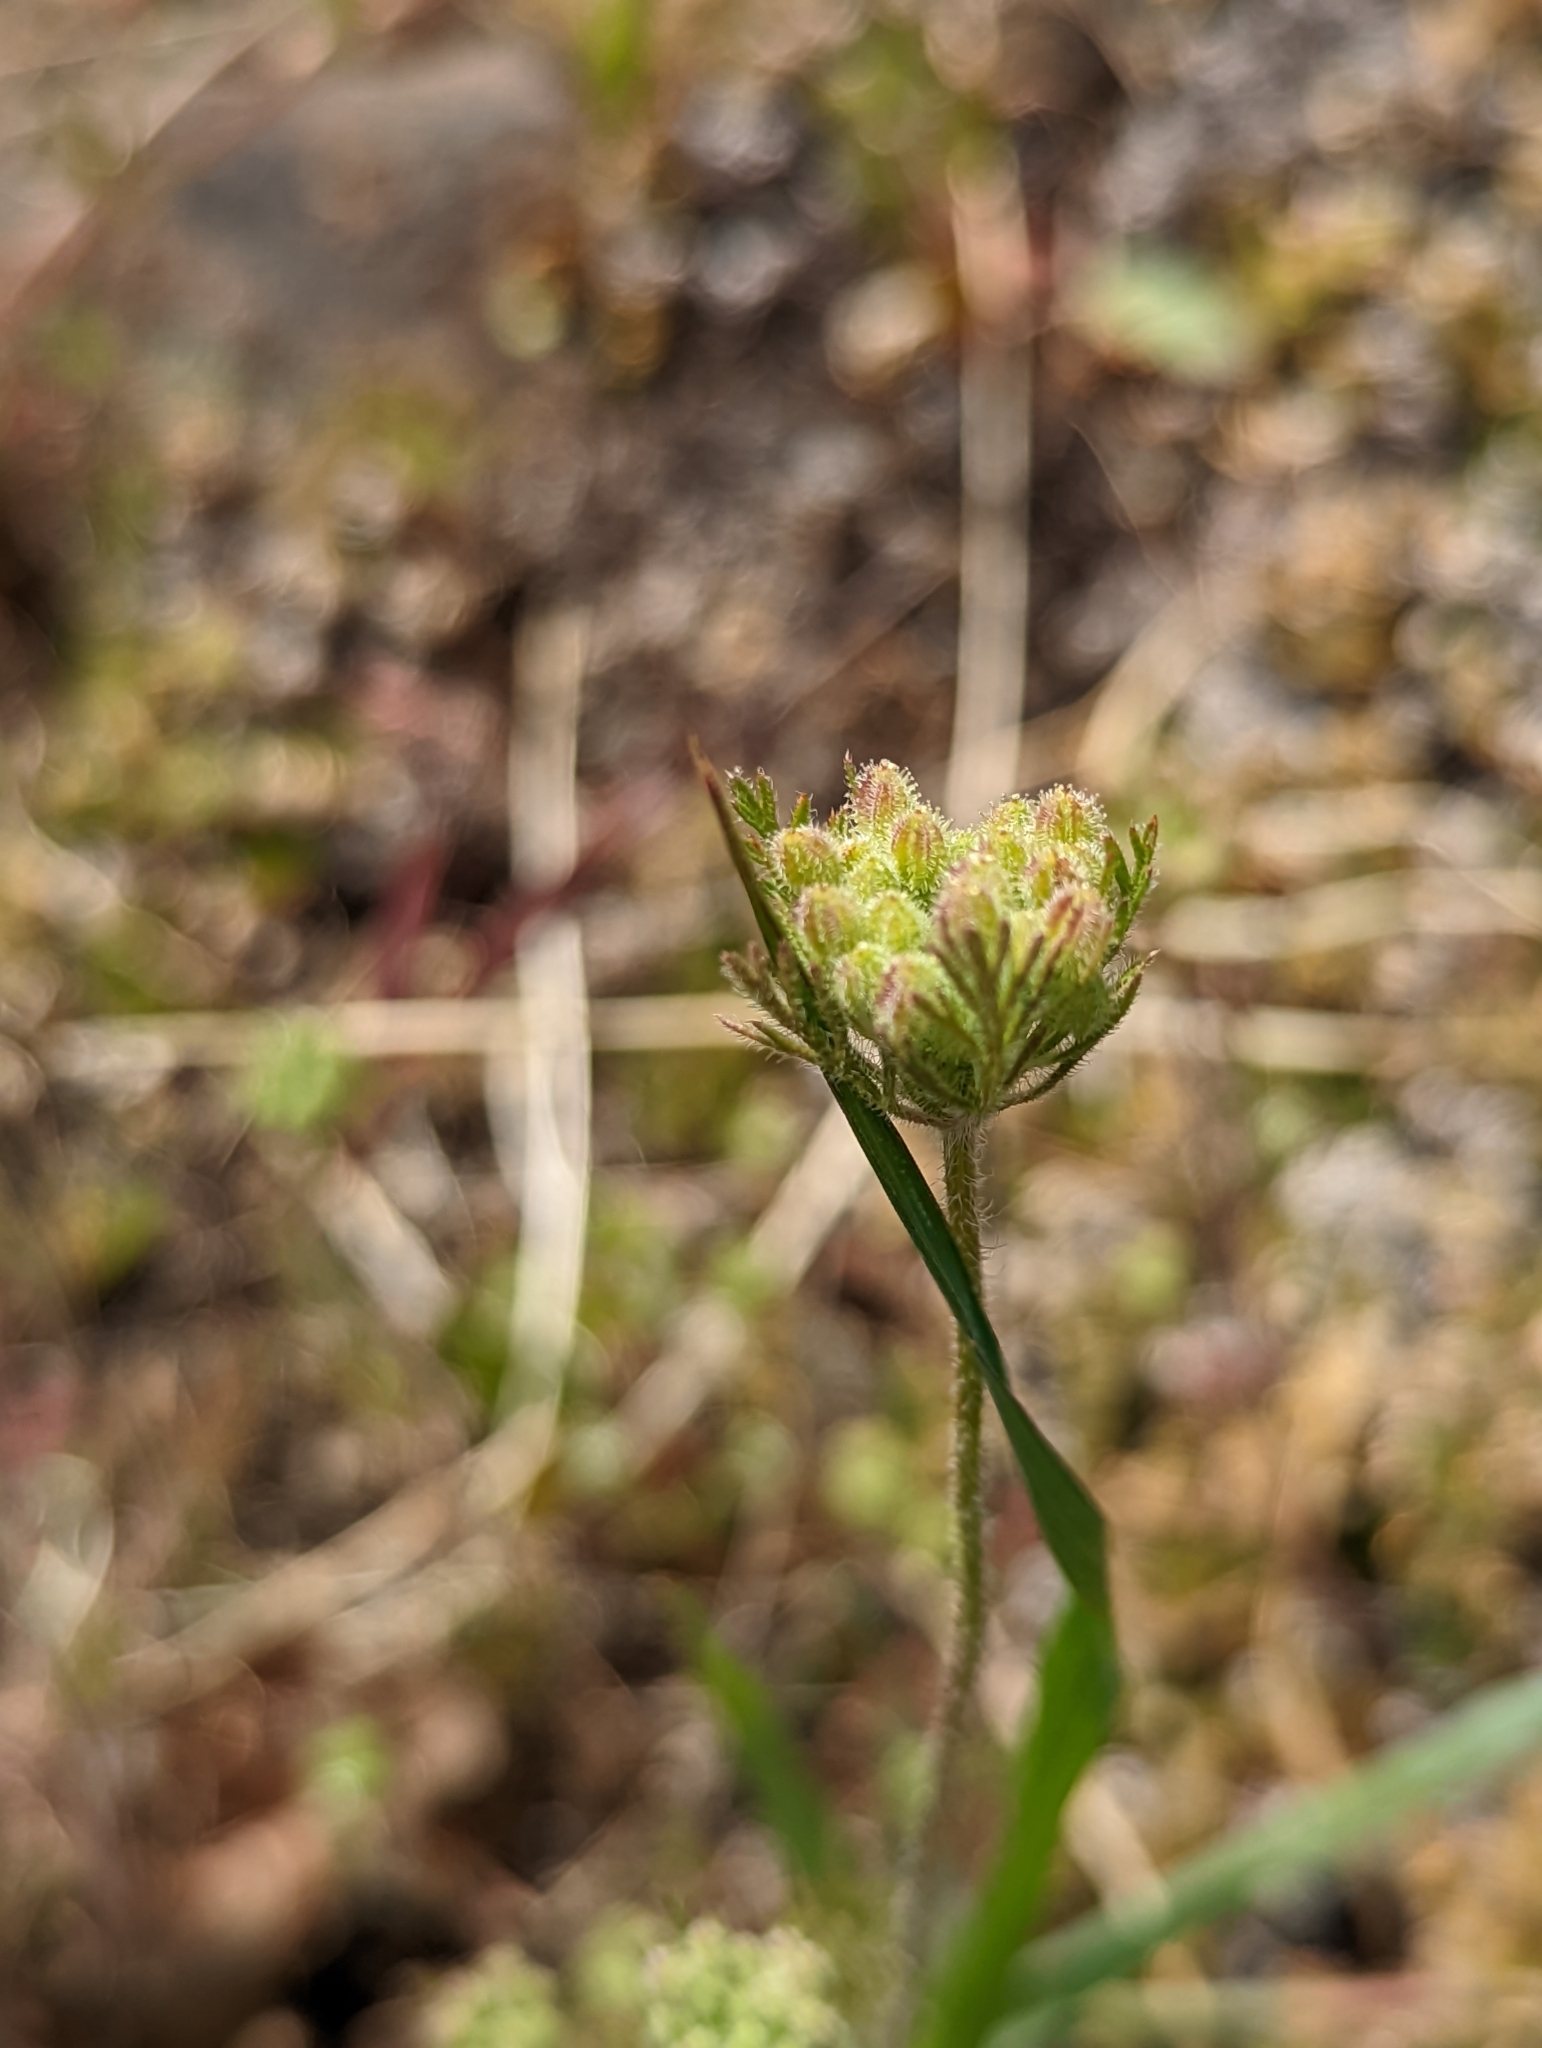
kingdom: Plantae
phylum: Tracheophyta
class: Magnoliopsida
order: Apiales
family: Apiaceae
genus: Daucus
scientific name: Daucus pusillus
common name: Southwest wild carrot
